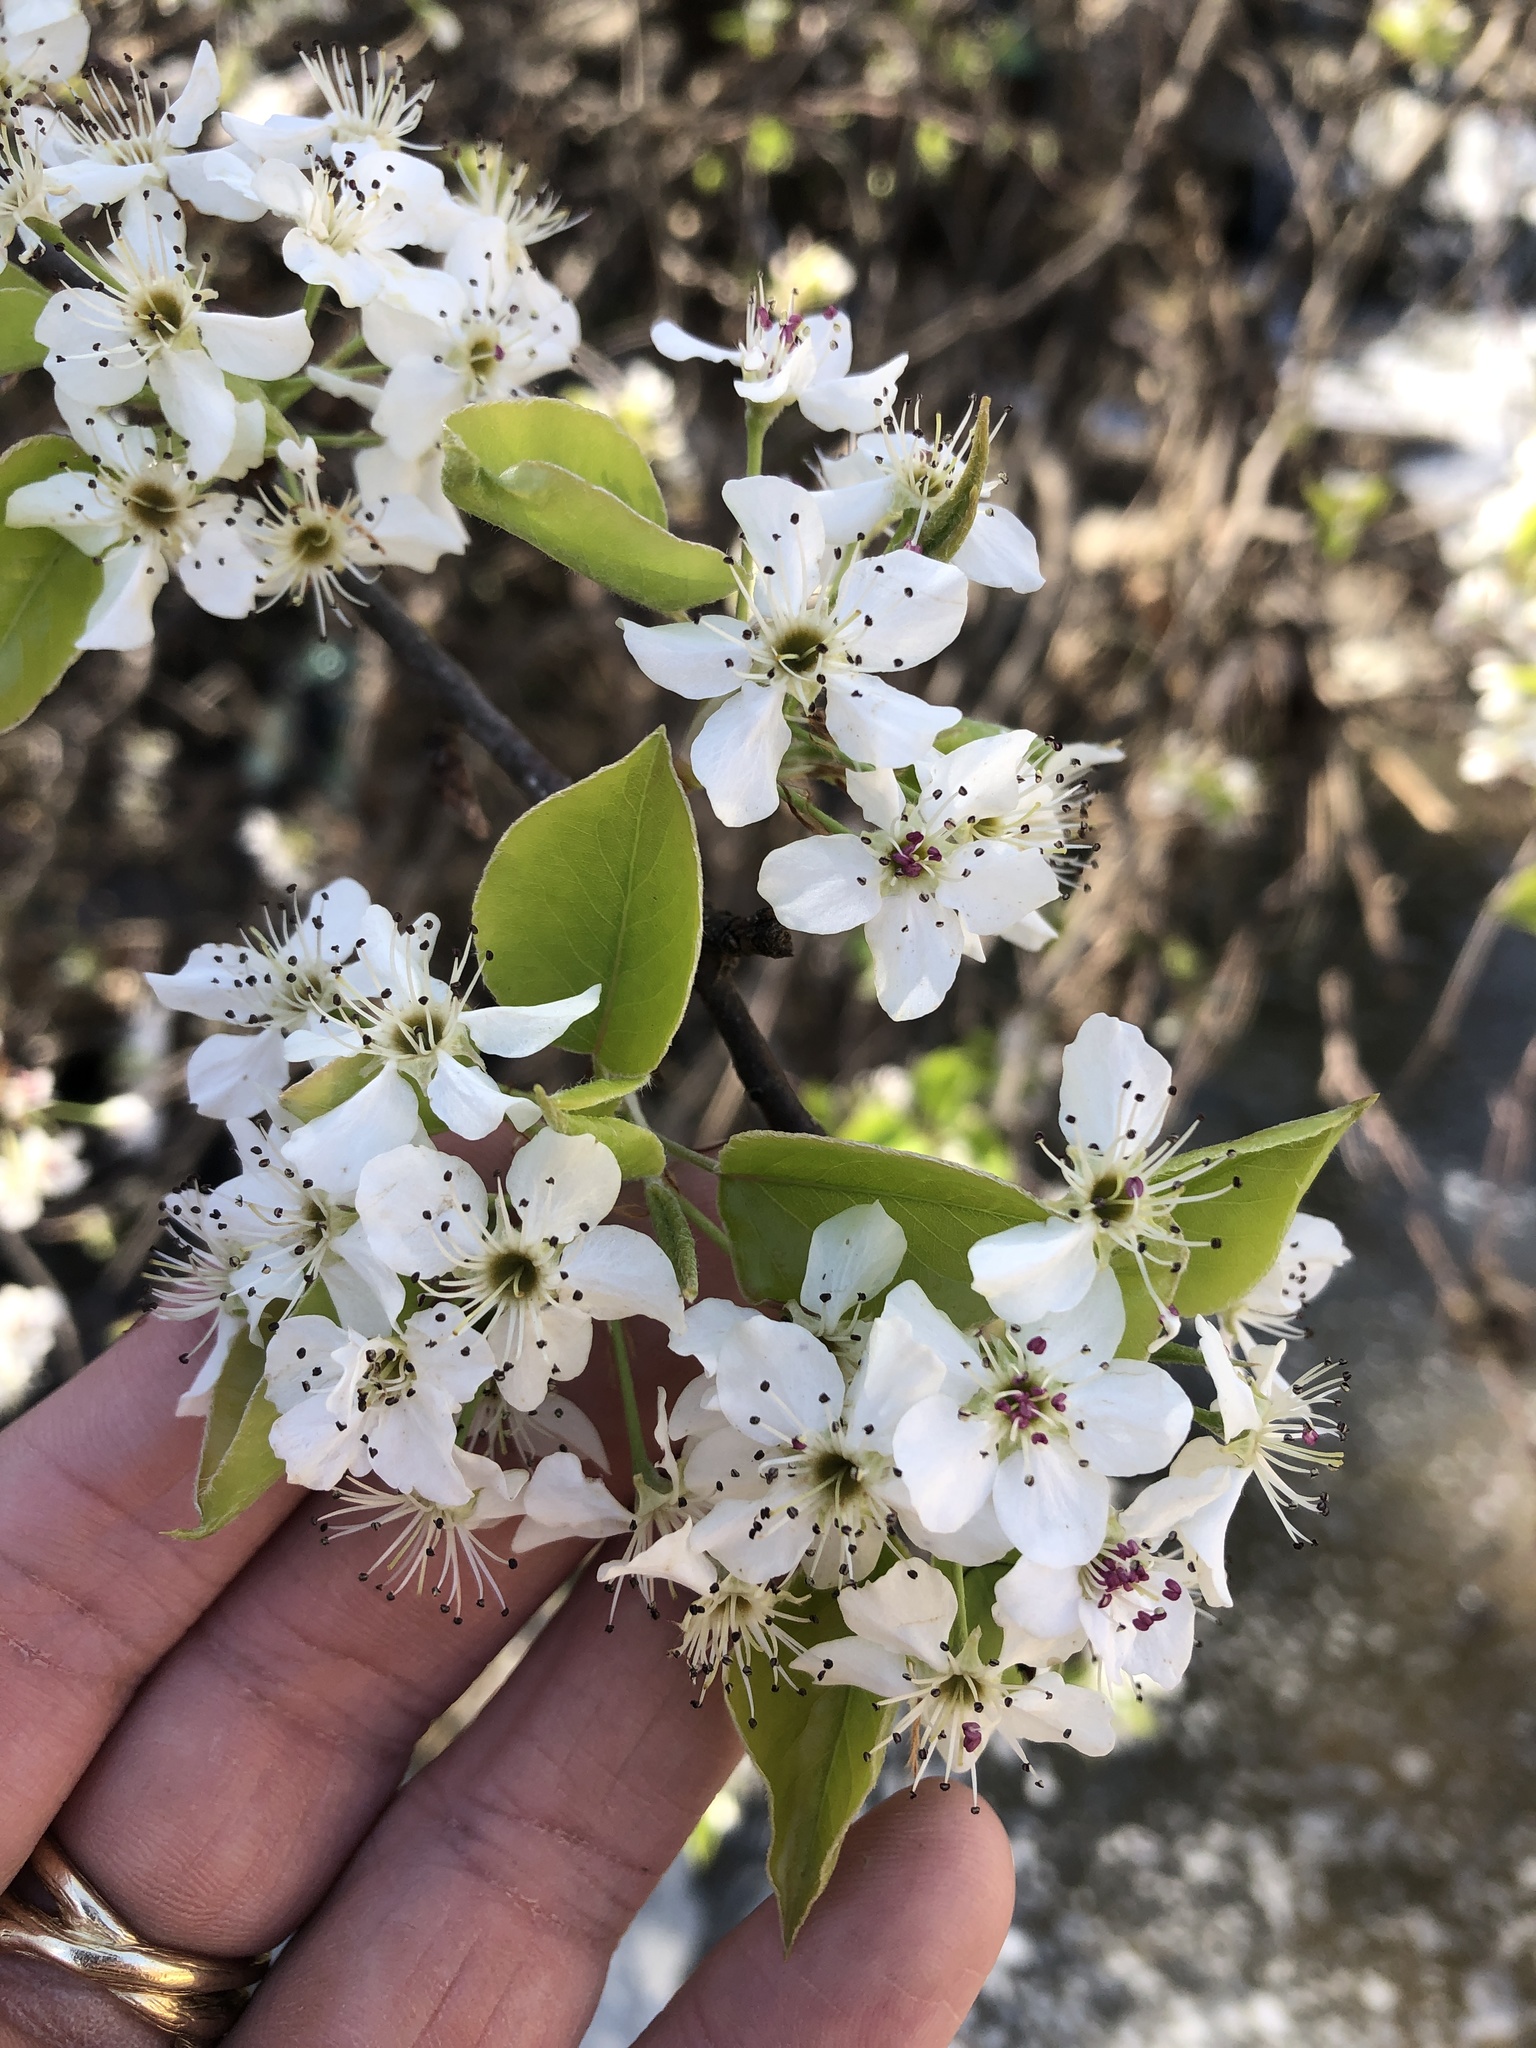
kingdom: Plantae
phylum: Tracheophyta
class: Magnoliopsida
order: Rosales
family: Rosaceae
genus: Pyrus
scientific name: Pyrus calleryana
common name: Callery pear
